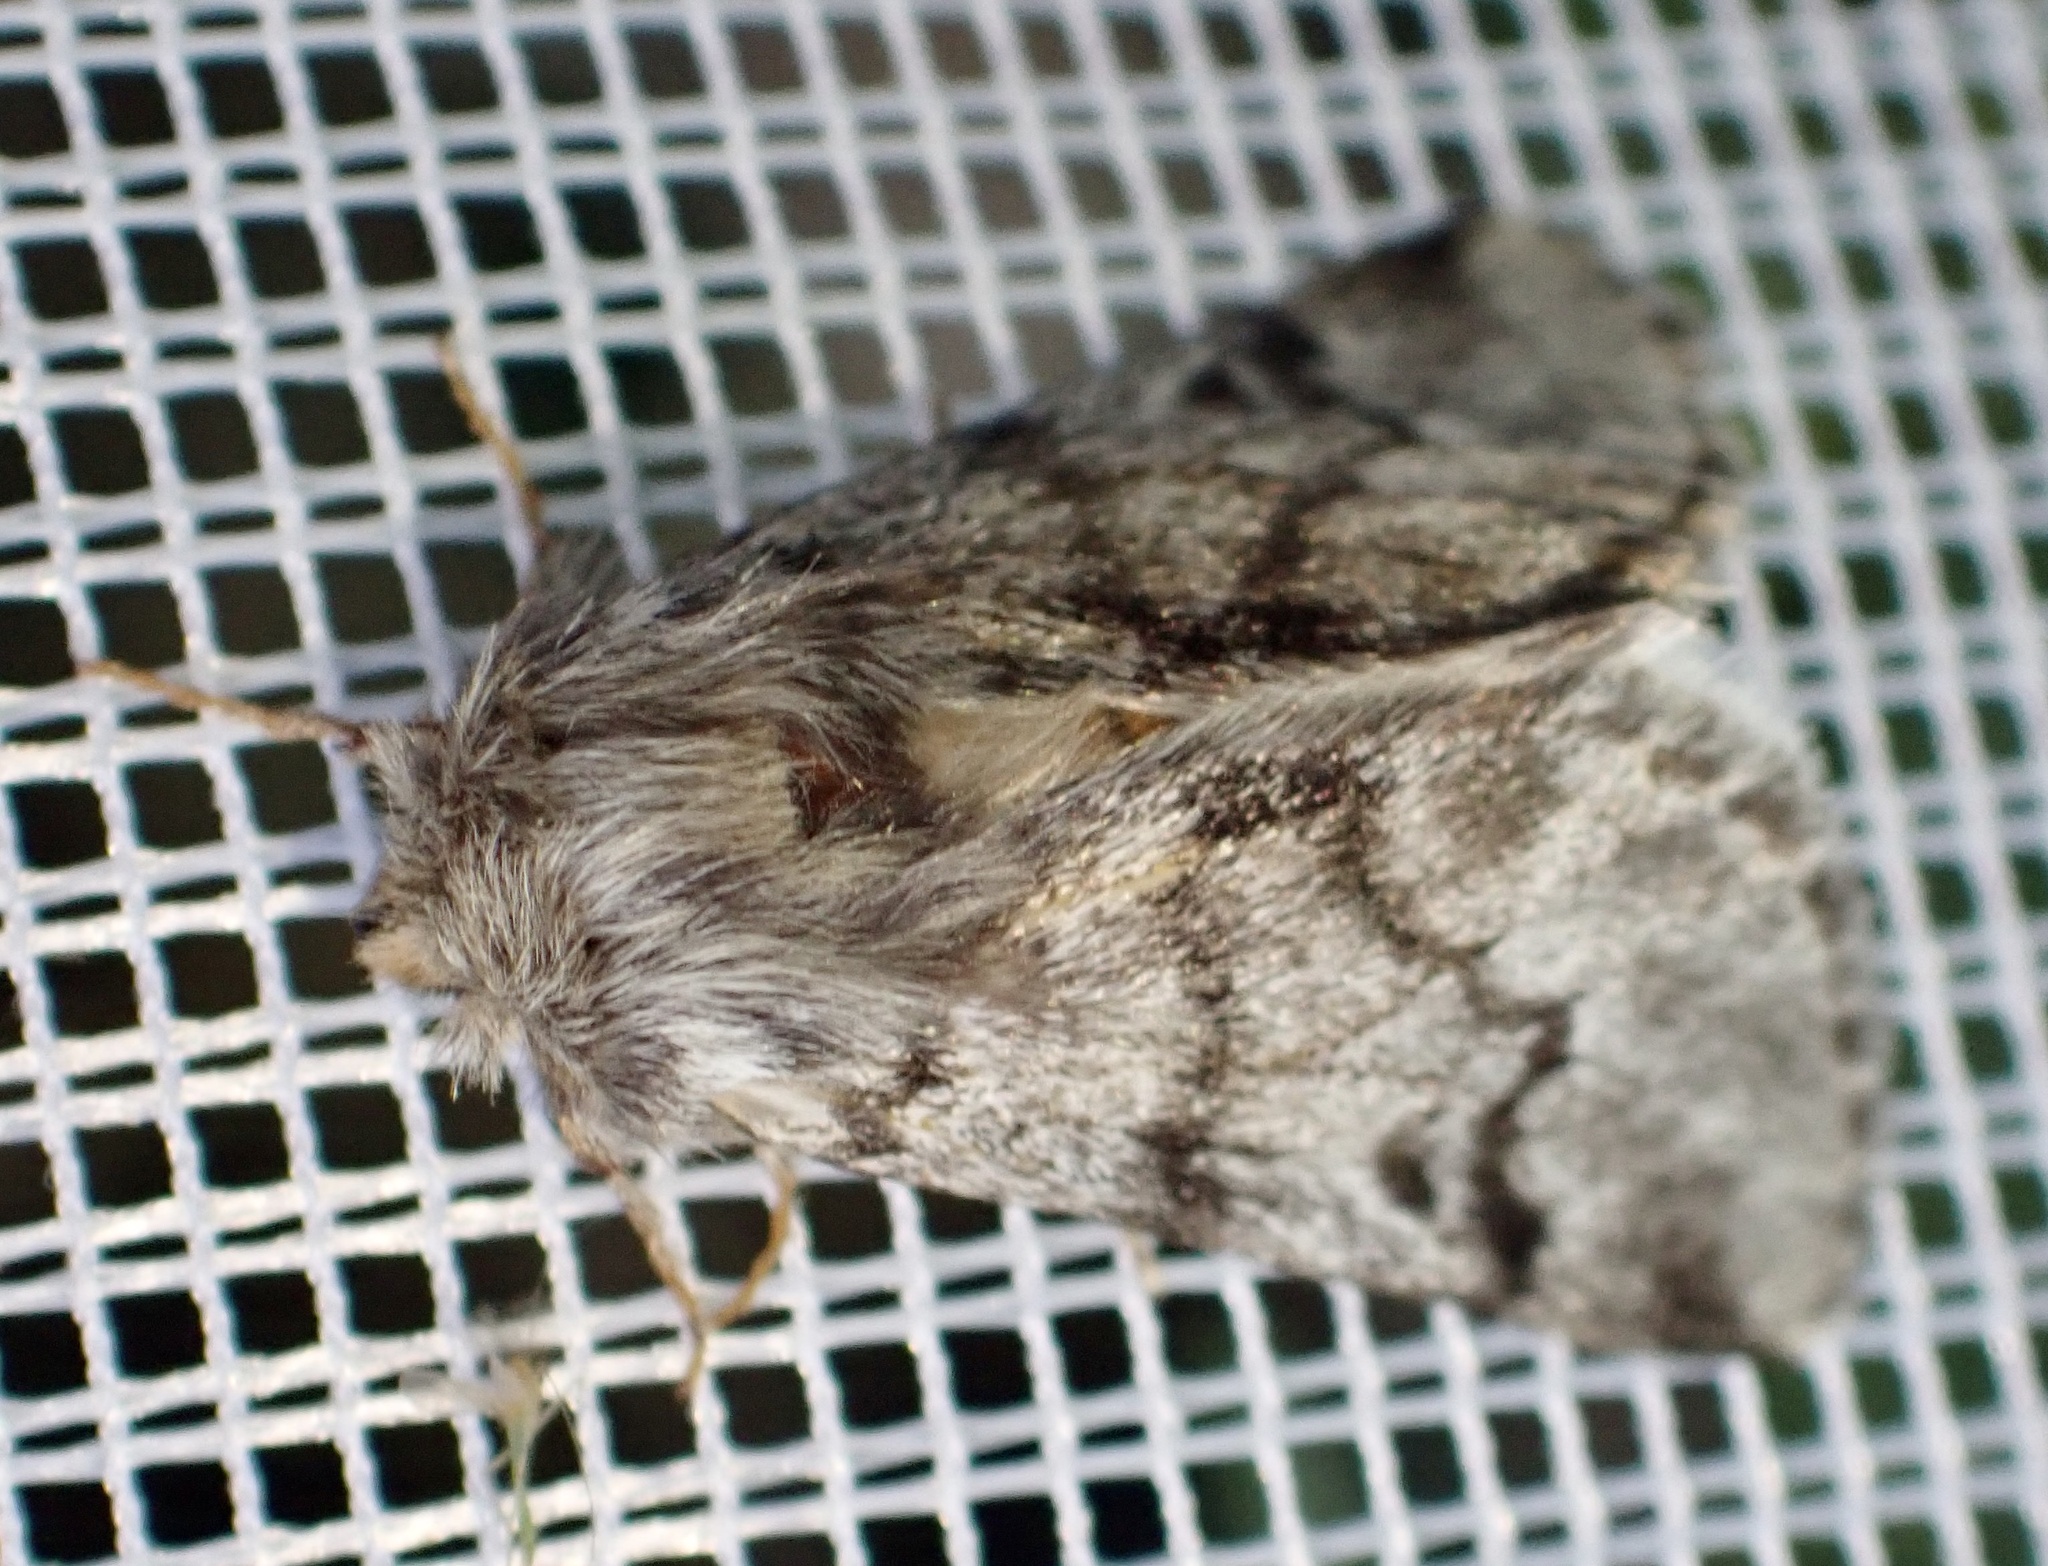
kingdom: Animalia
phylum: Arthropoda
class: Insecta
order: Lepidoptera
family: Notodontidae
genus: Thaumetopoea
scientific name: Thaumetopoea pityocampa
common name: Pine processionary
